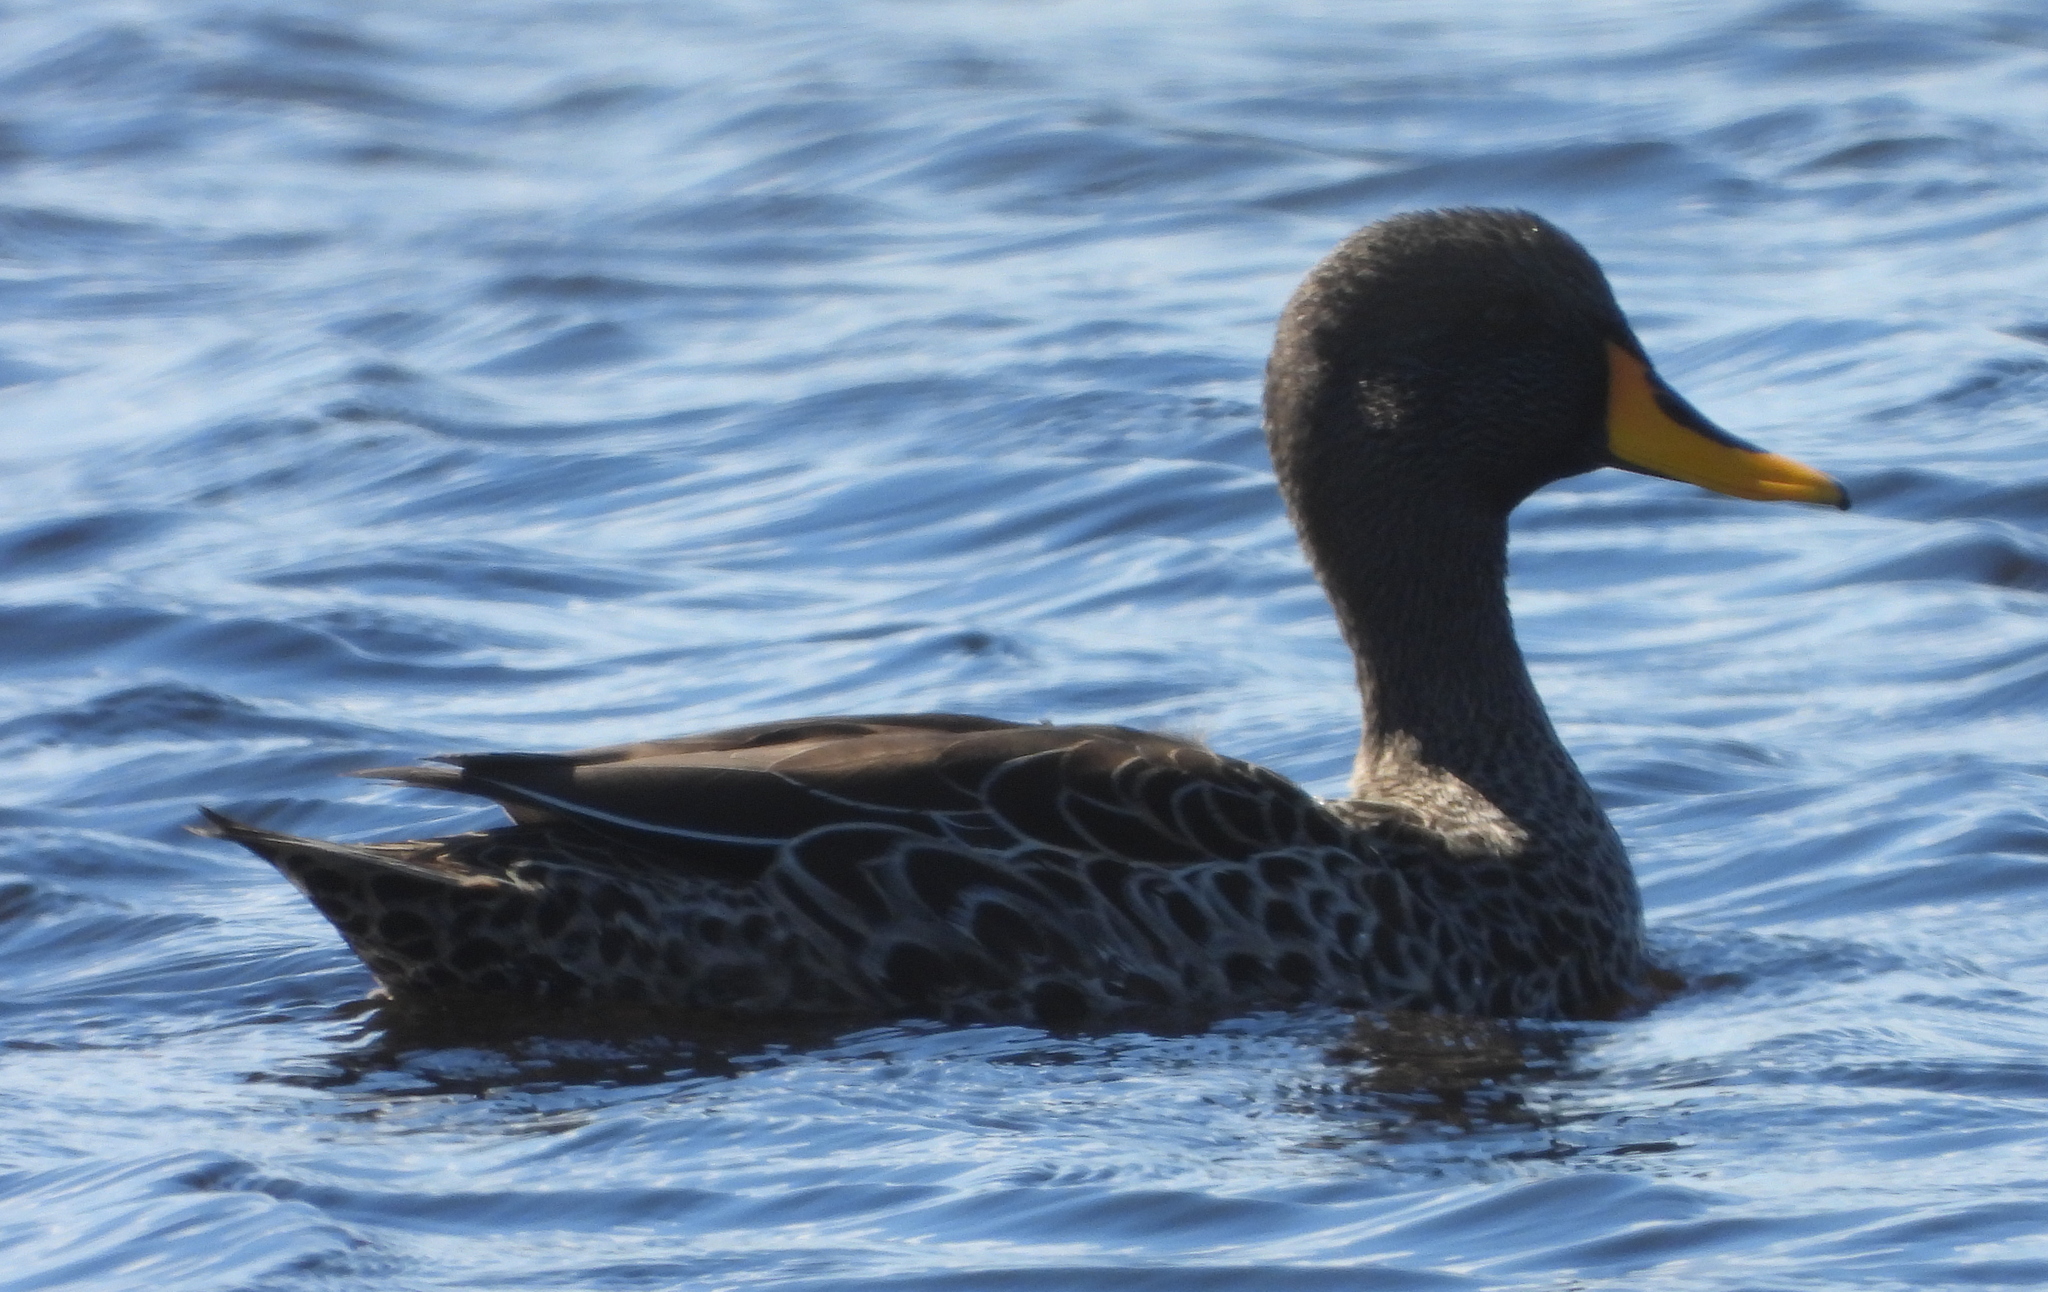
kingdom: Animalia
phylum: Chordata
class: Aves
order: Anseriformes
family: Anatidae
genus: Anas
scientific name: Anas undulata
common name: Yellow-billed duck
